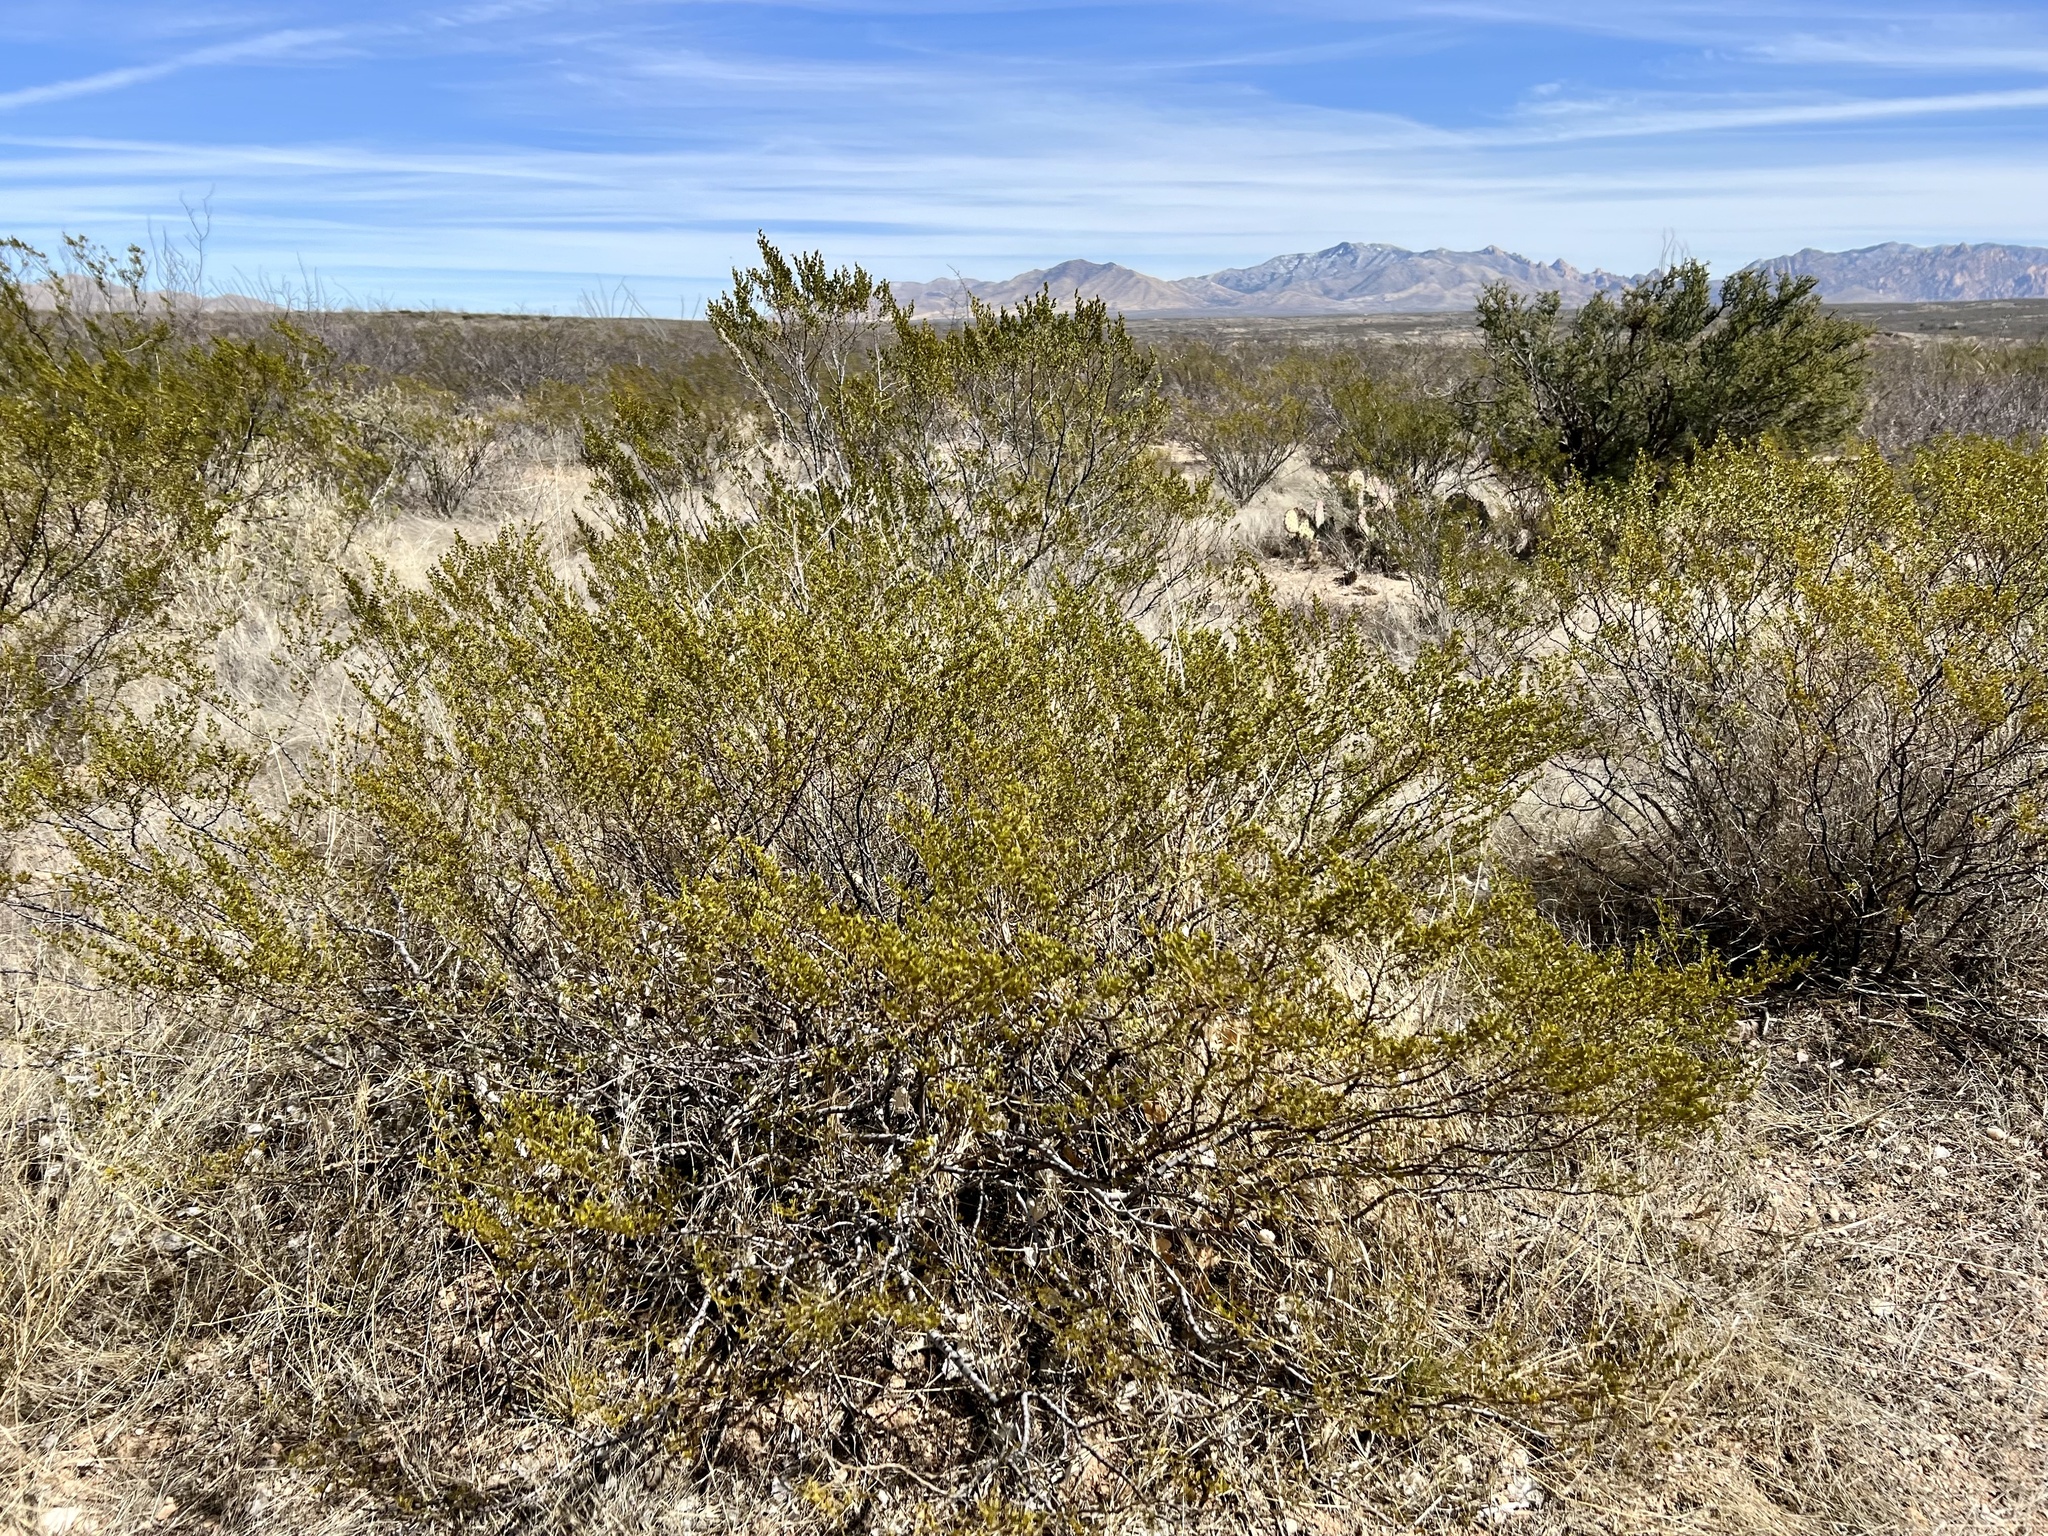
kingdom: Plantae
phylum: Tracheophyta
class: Magnoliopsida
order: Zygophyllales
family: Zygophyllaceae
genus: Larrea
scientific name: Larrea tridentata
